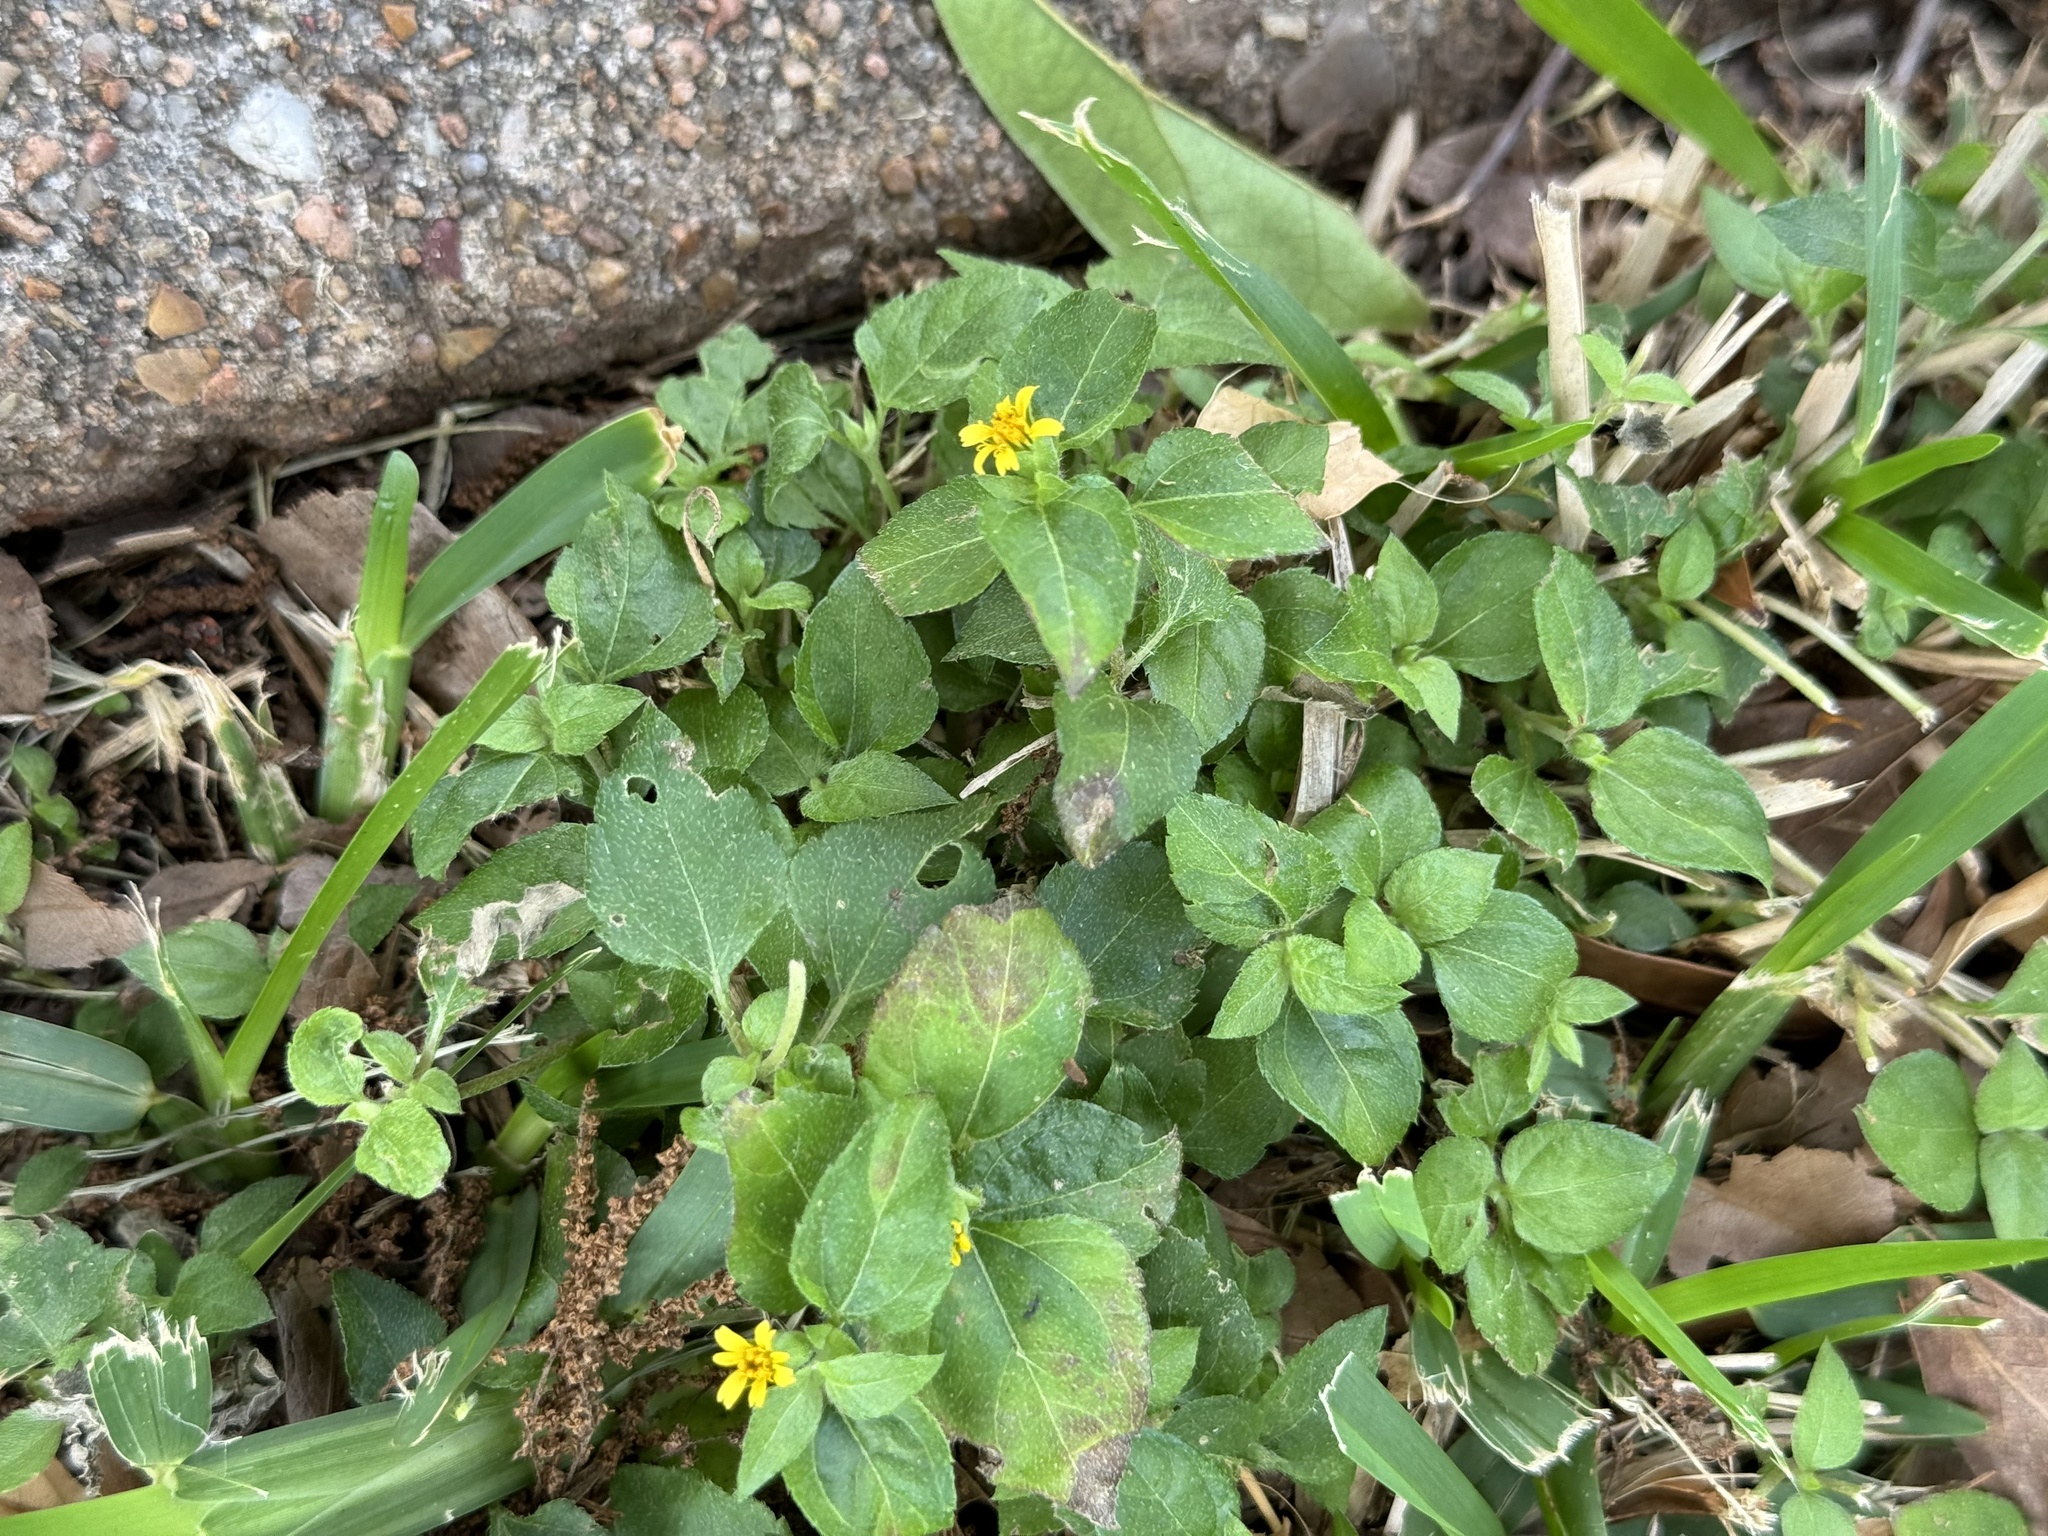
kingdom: Plantae
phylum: Tracheophyta
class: Magnoliopsida
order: Asterales
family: Asteraceae
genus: Calyptocarpus
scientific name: Calyptocarpus vialis
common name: Straggler daisy
